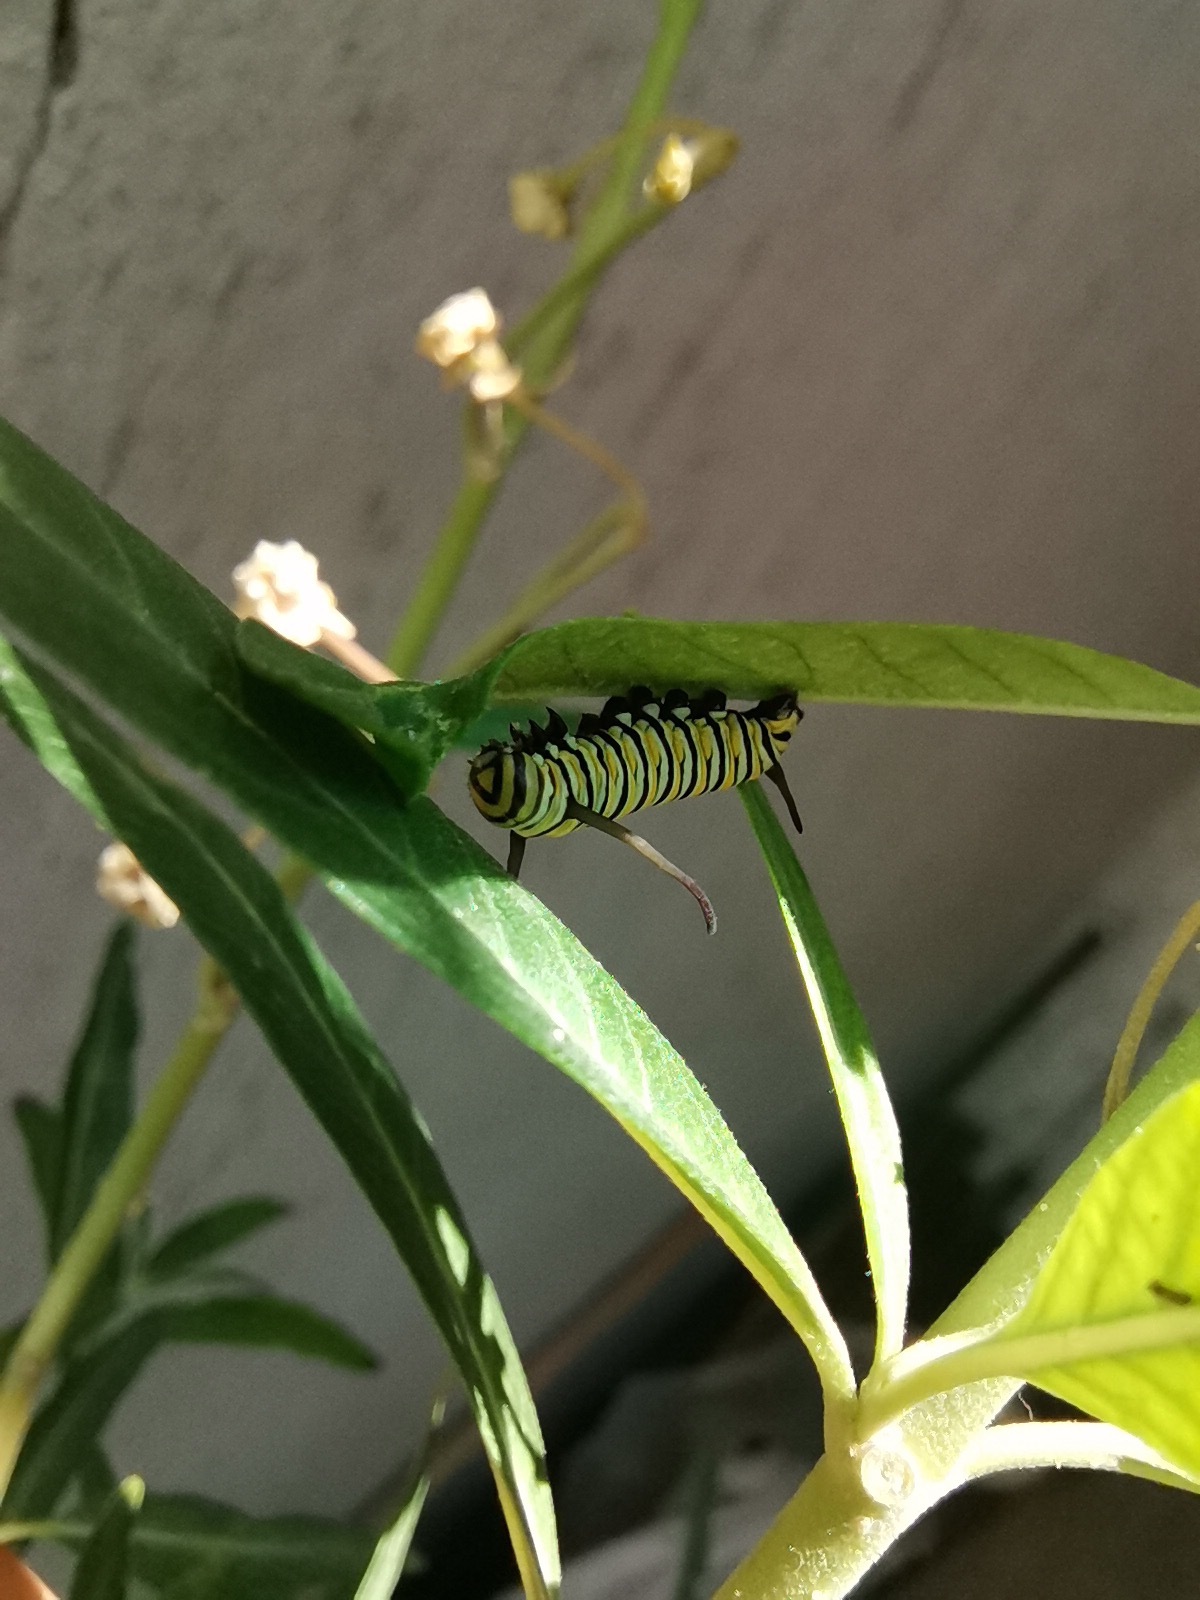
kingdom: Animalia
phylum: Arthropoda
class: Insecta
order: Lepidoptera
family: Nymphalidae
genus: Danaus
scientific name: Danaus plexippus
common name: Monarch
